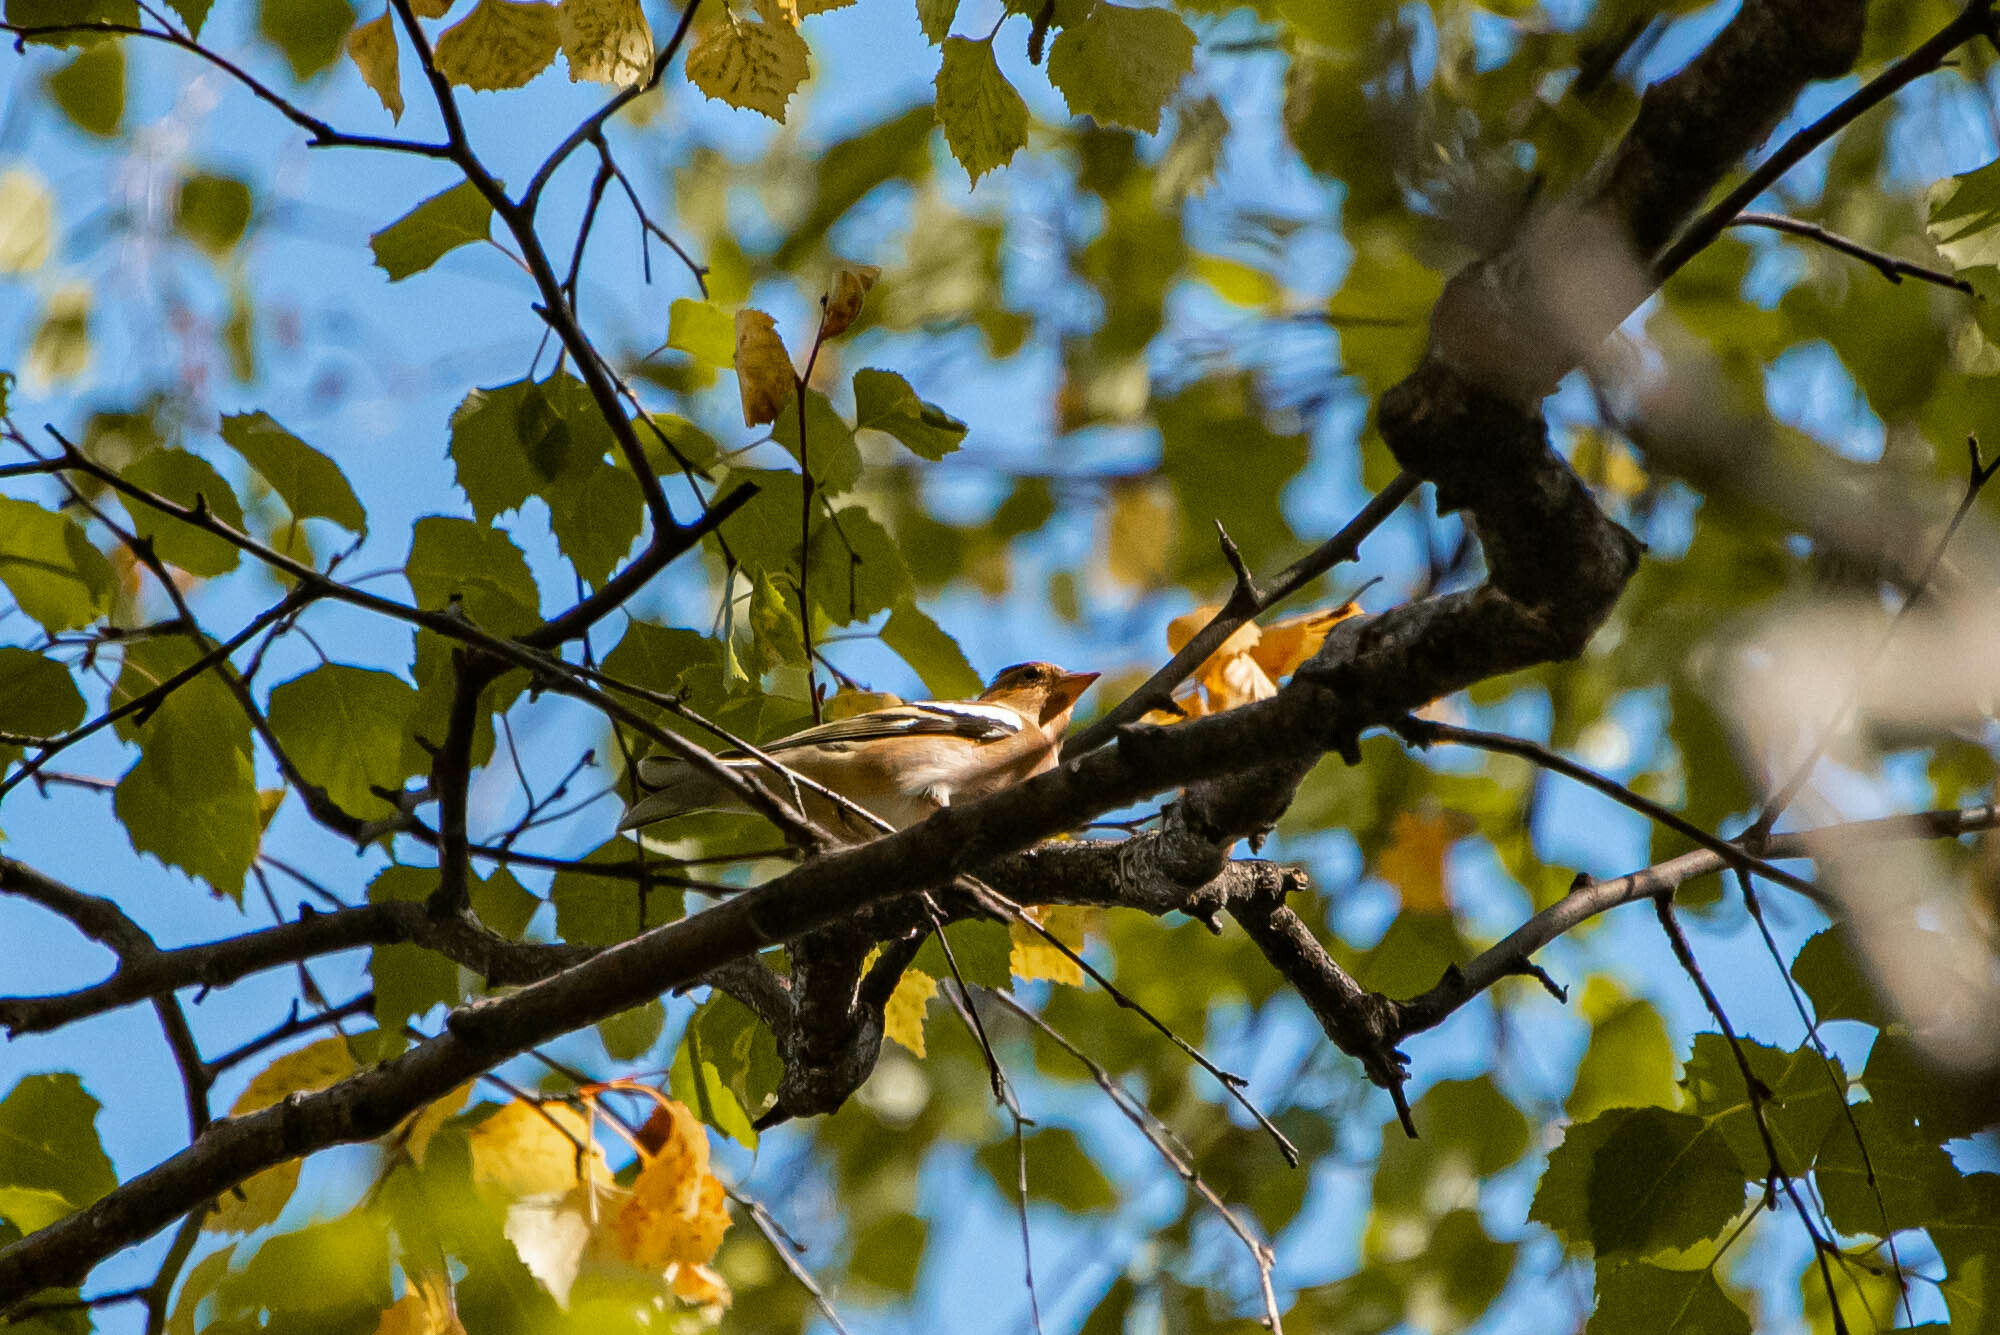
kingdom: Animalia
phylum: Chordata
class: Aves
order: Passeriformes
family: Fringillidae
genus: Fringilla
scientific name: Fringilla coelebs
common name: Common chaffinch
